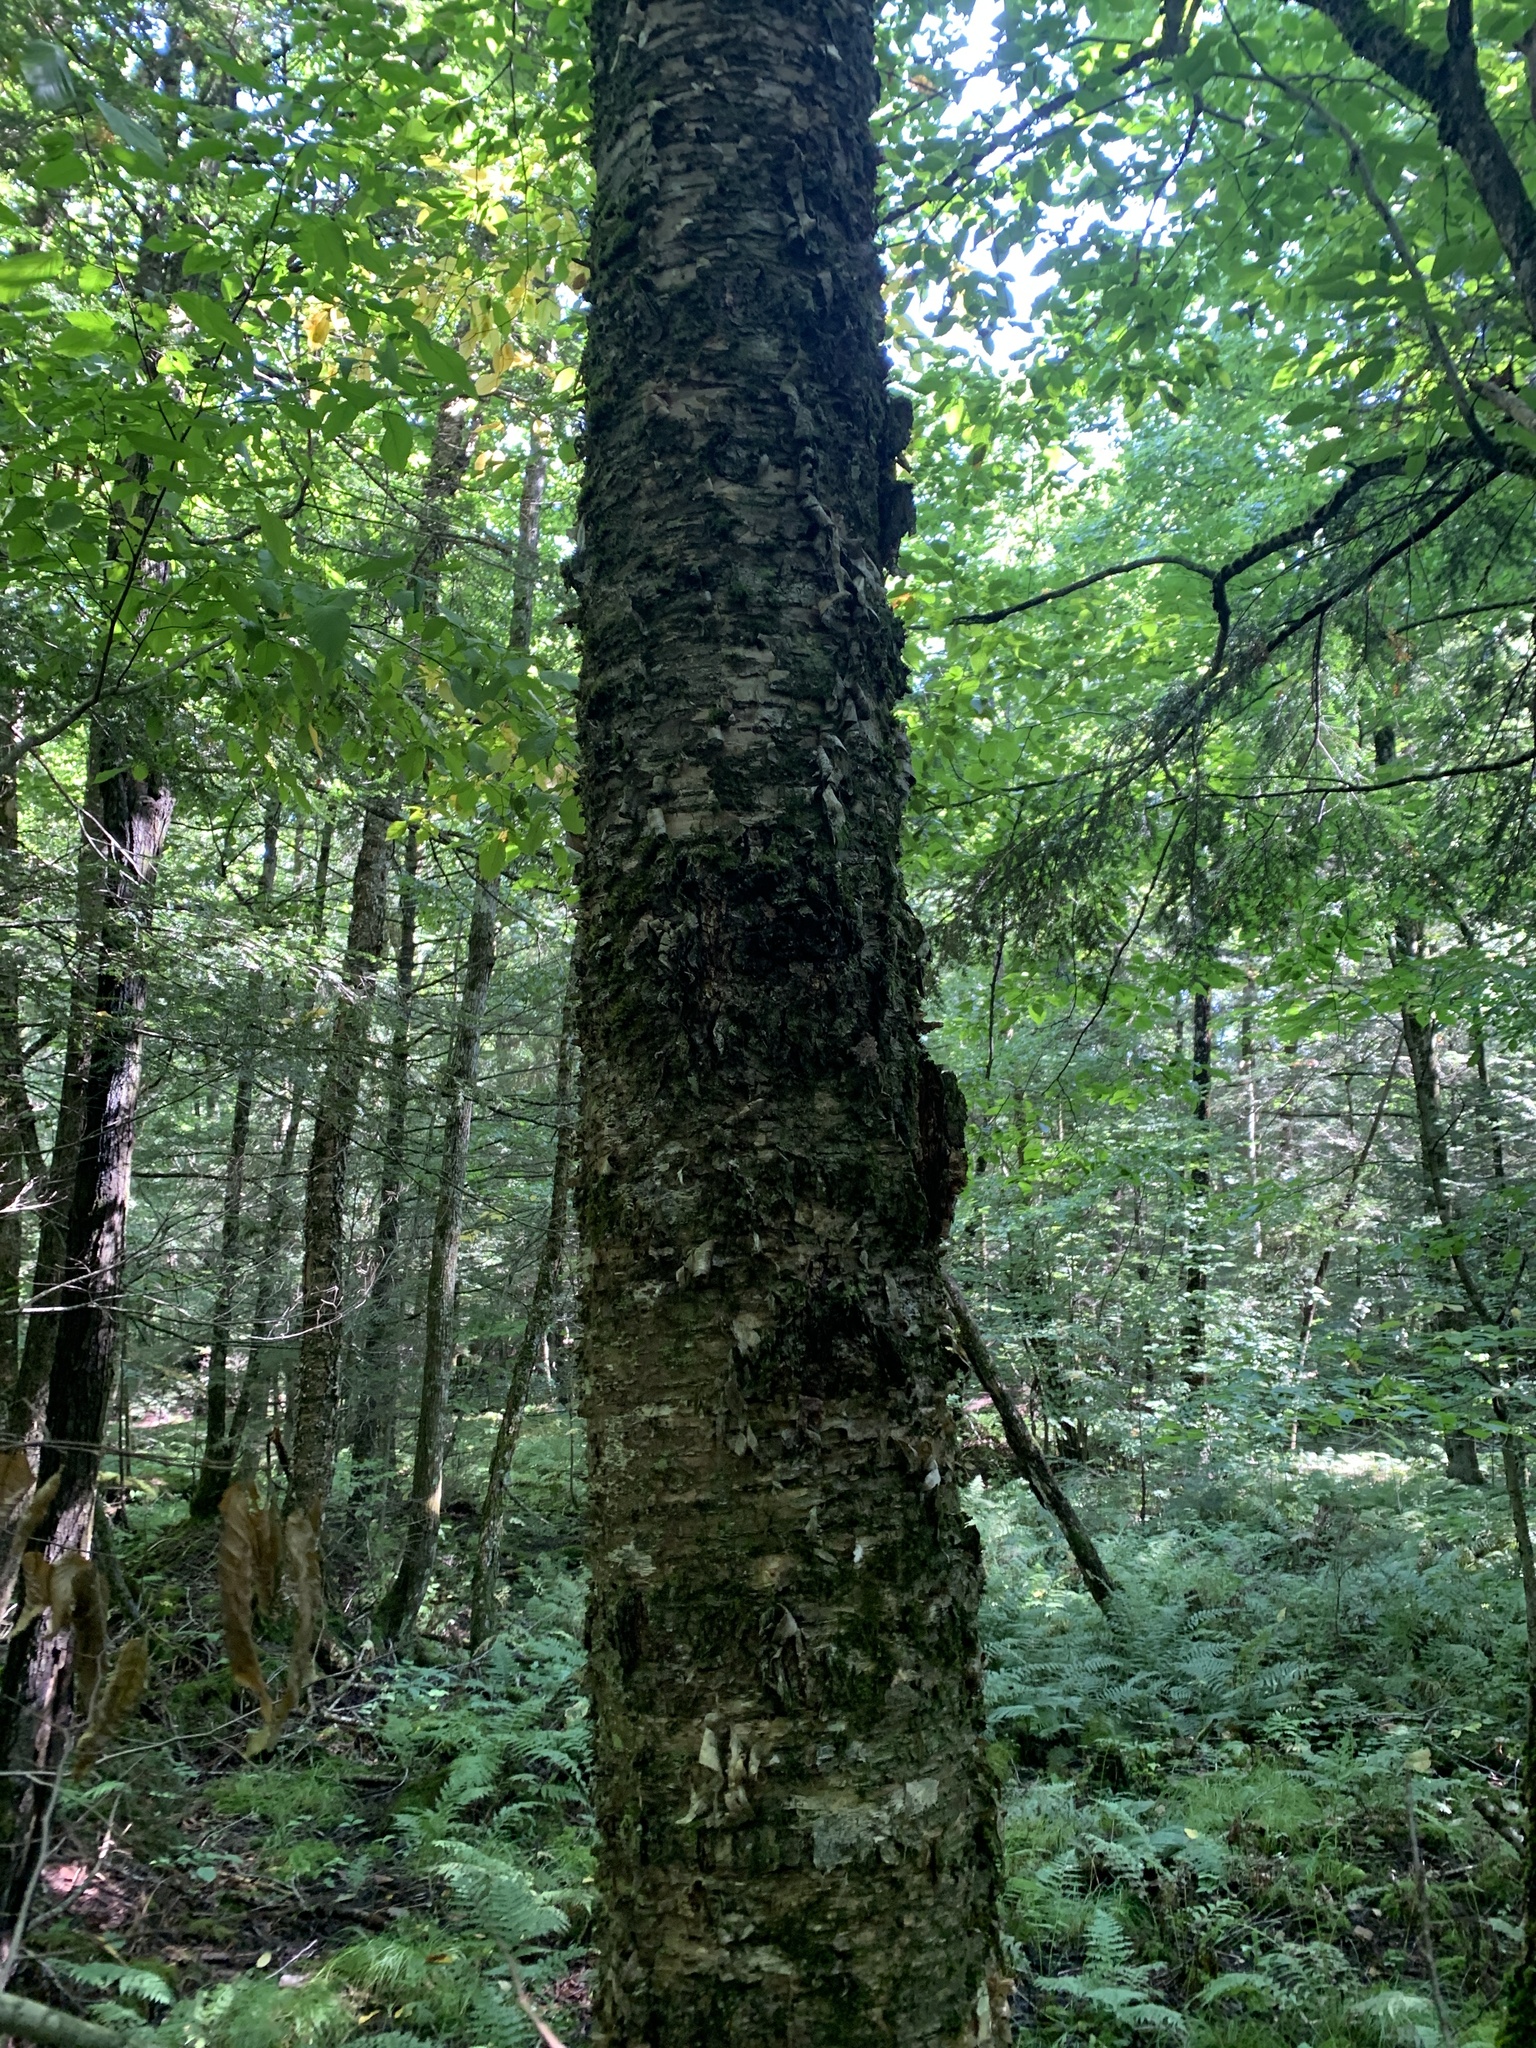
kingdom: Plantae
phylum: Tracheophyta
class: Magnoliopsida
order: Fagales
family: Betulaceae
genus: Betula
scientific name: Betula alleghaniensis
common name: Yellow birch
